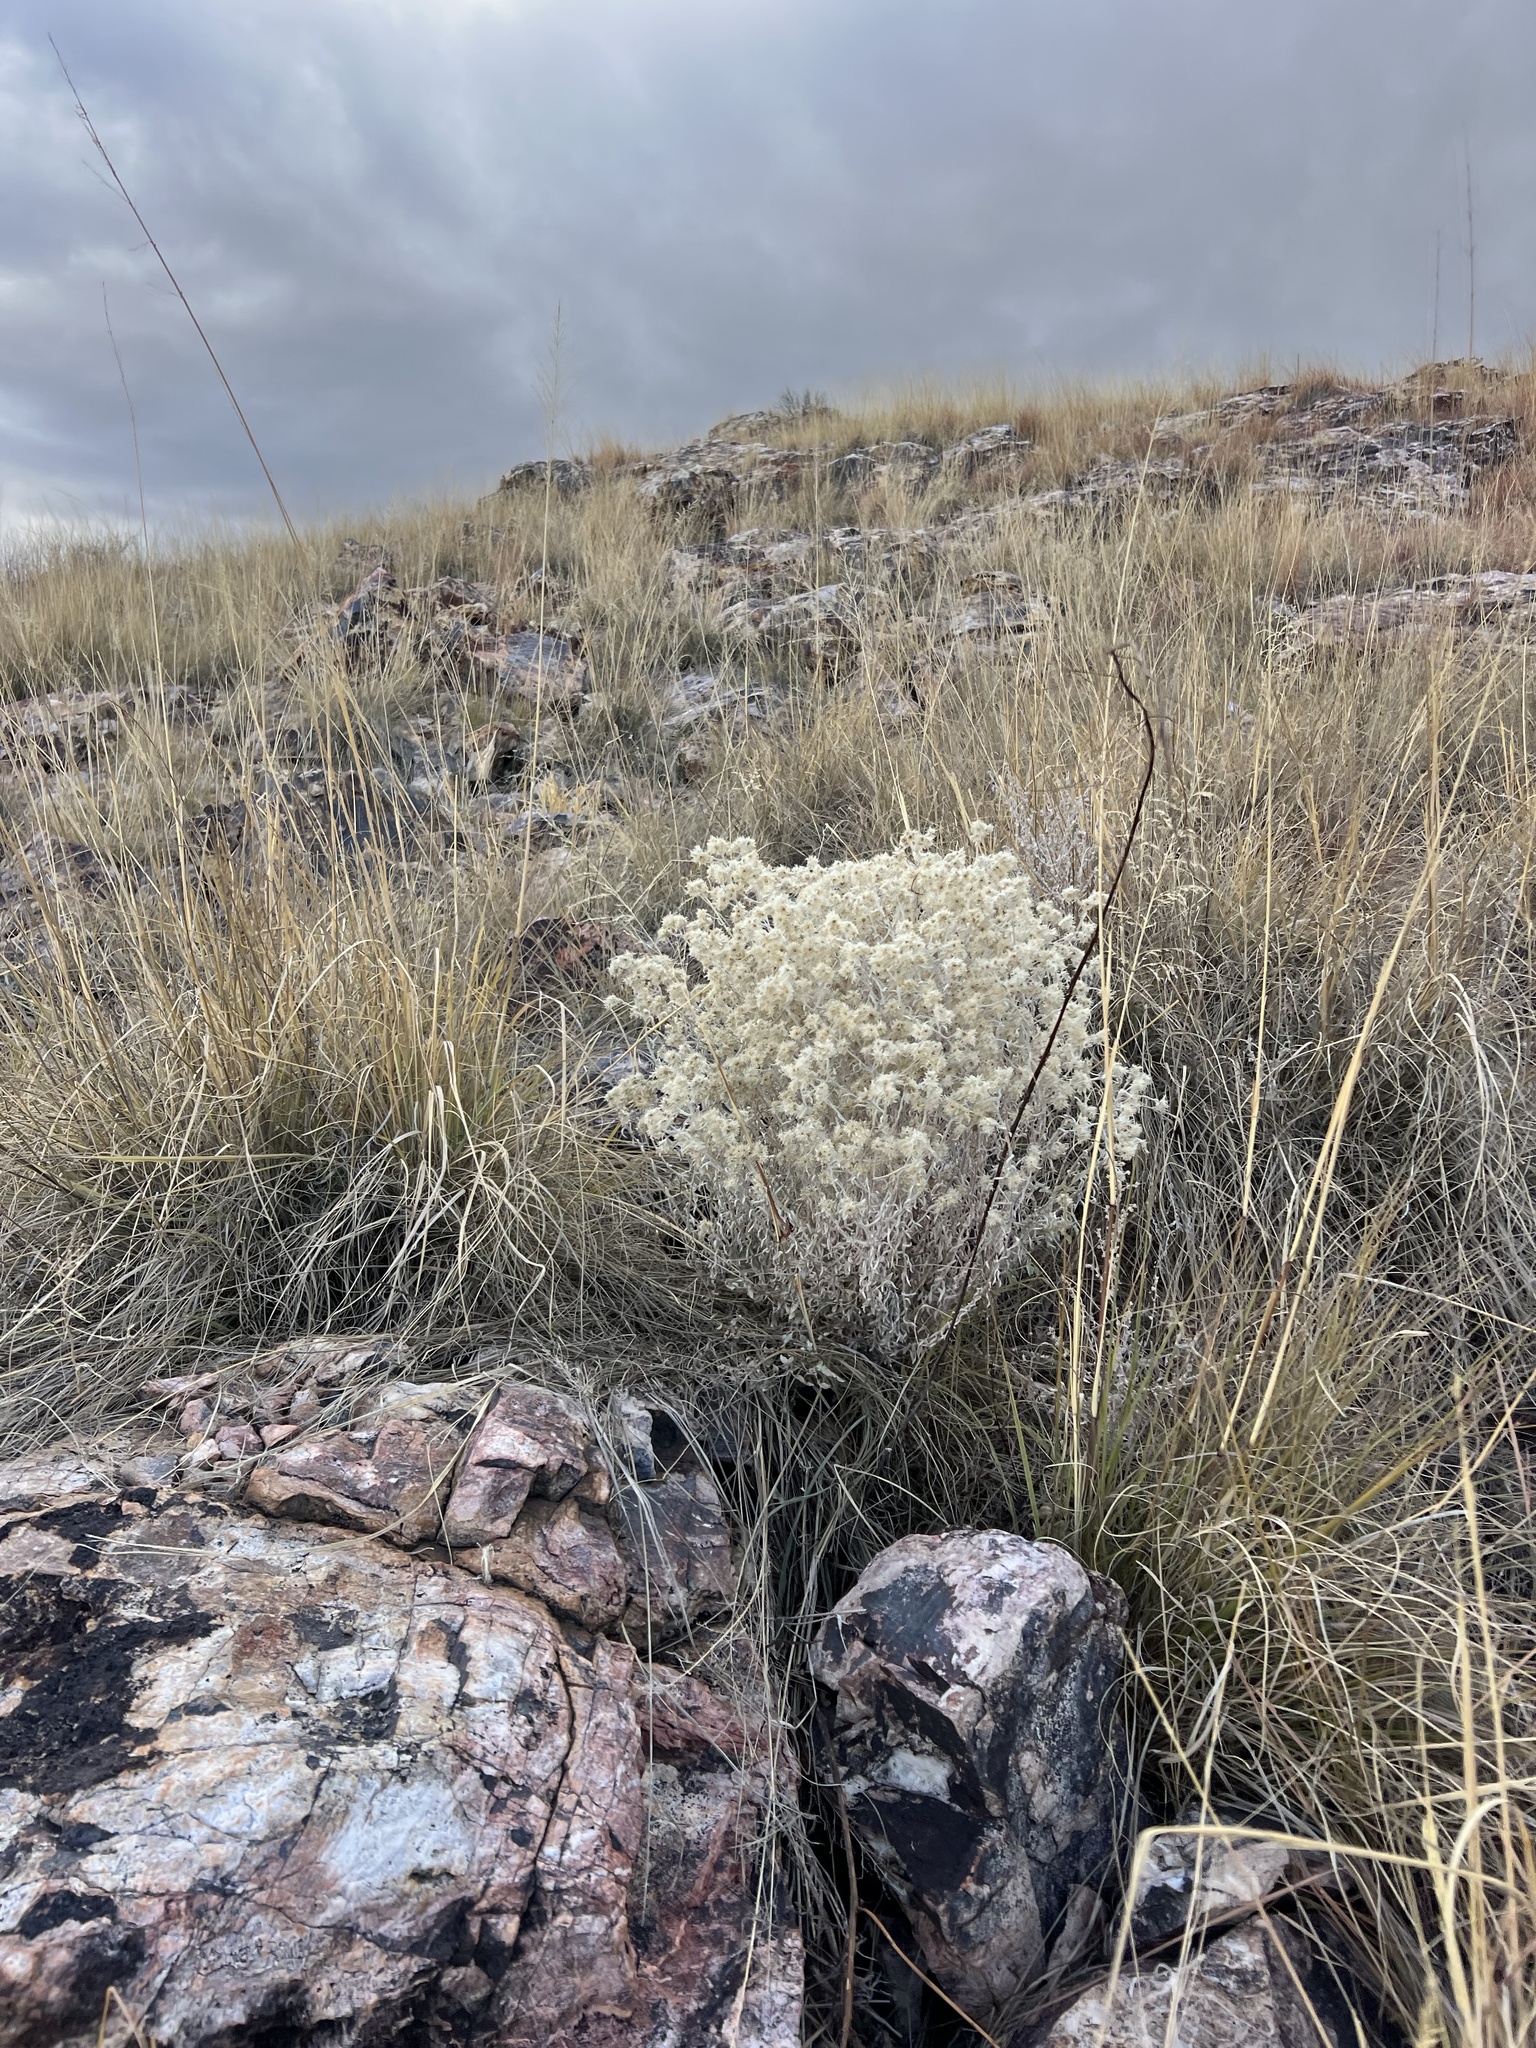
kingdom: Plantae
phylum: Tracheophyta
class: Magnoliopsida
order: Asterales
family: Asteraceae
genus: Pseudognaphalium
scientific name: Pseudognaphalium canescens
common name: Wright's rabbit-tobacco
